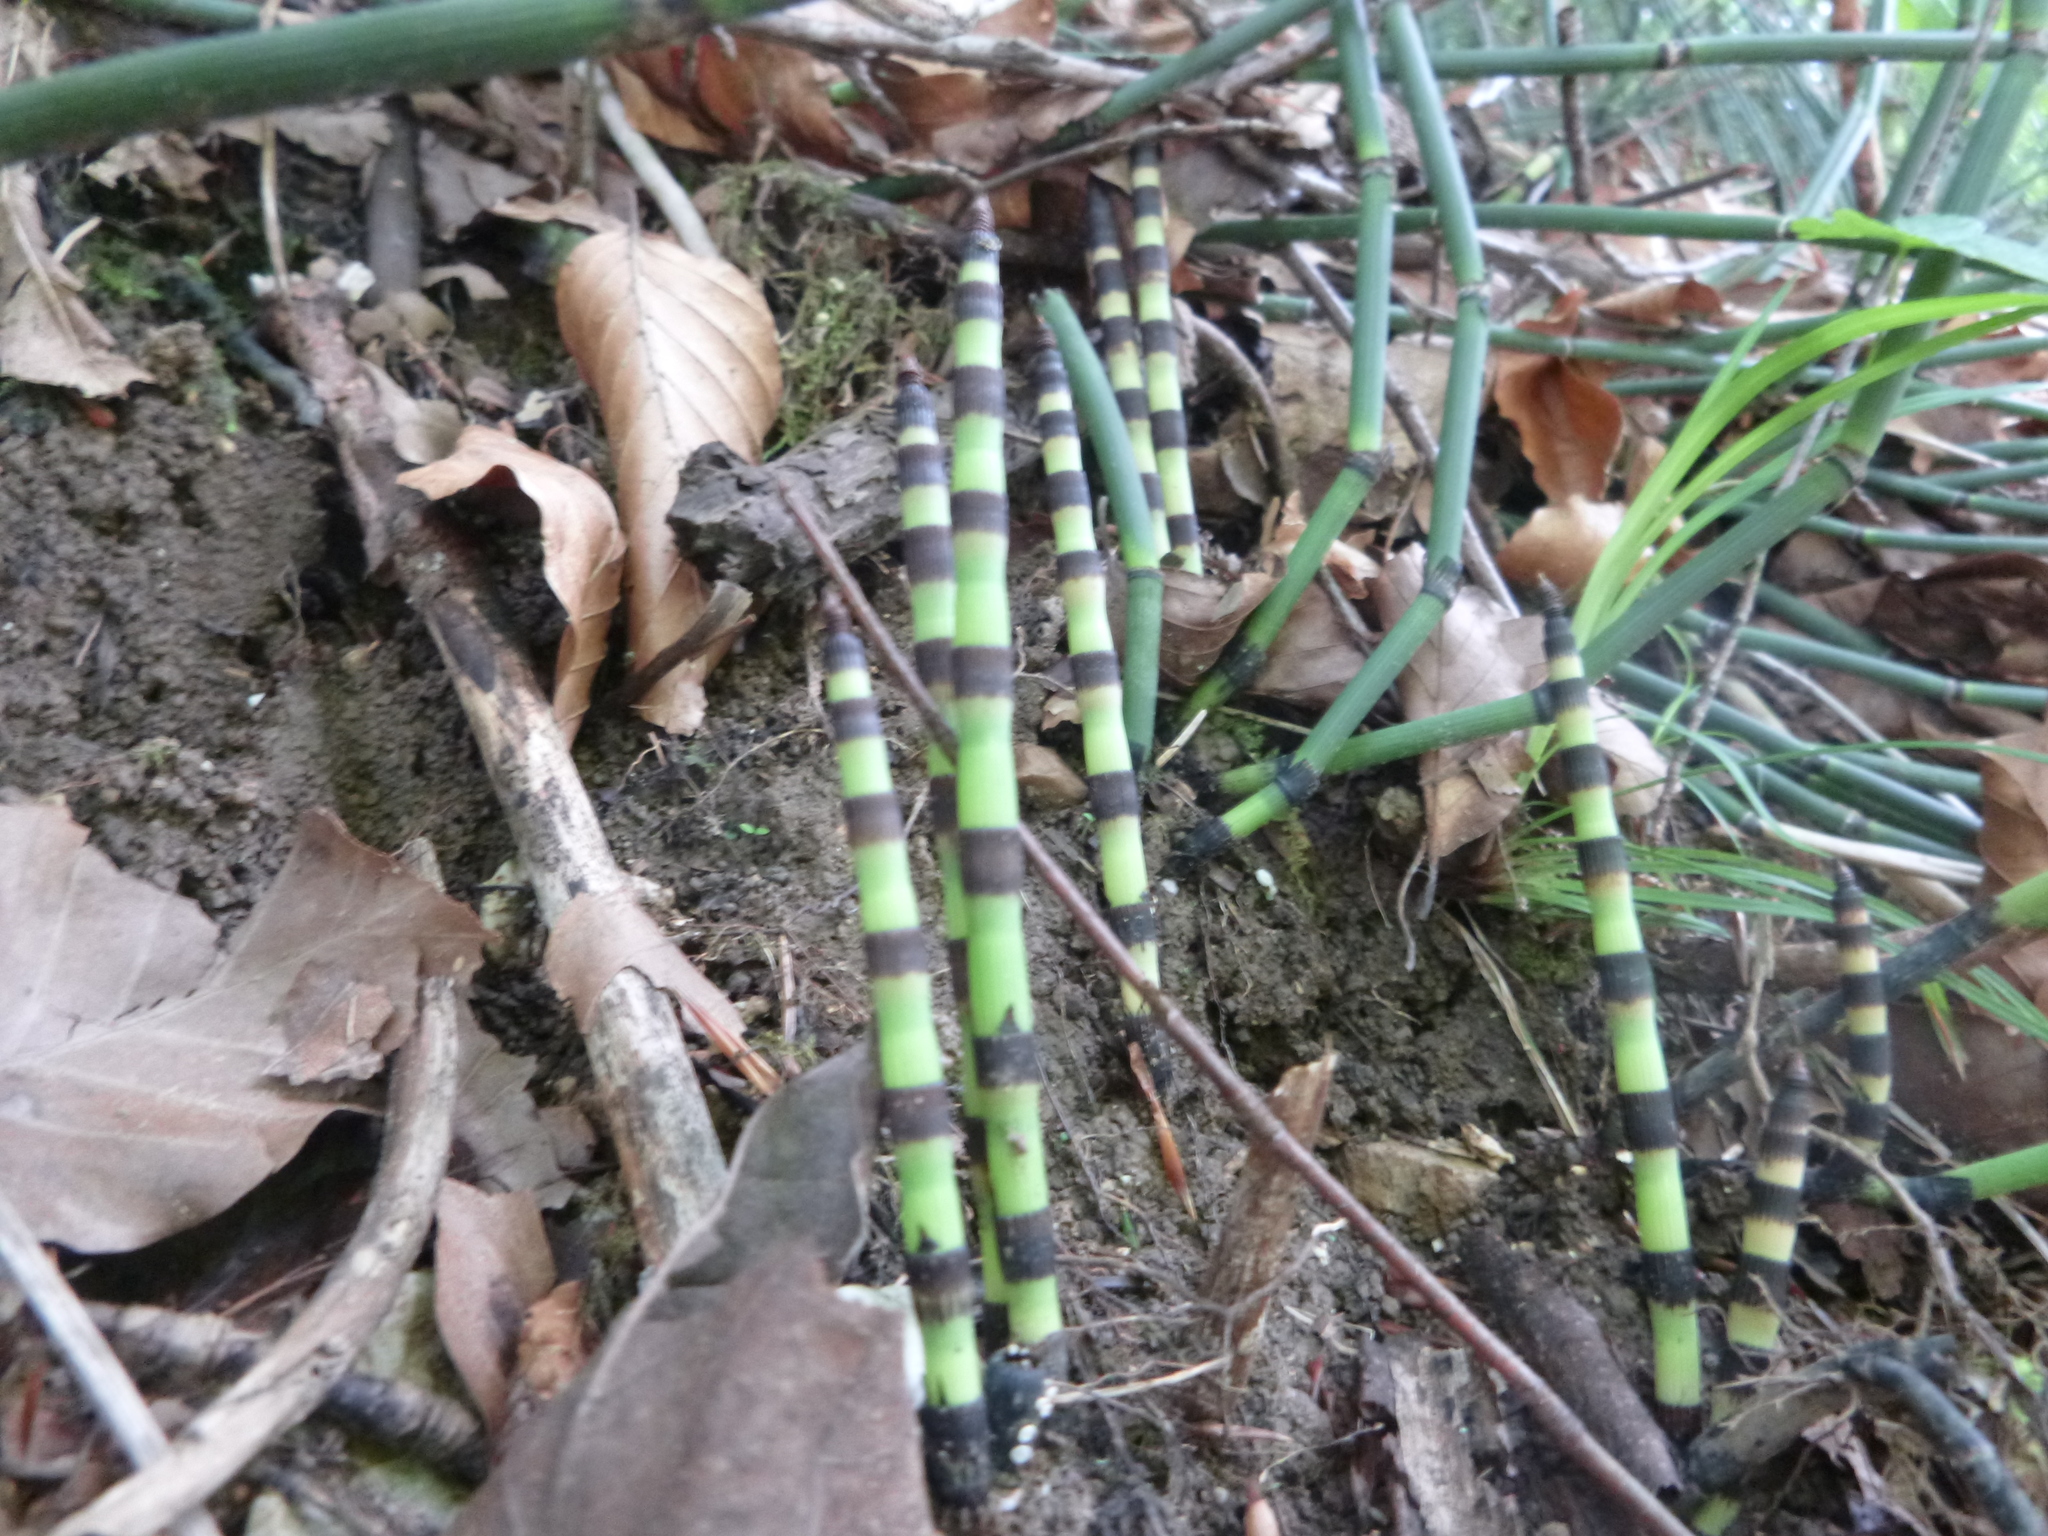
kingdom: Plantae
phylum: Tracheophyta
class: Polypodiopsida
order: Equisetales
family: Equisetaceae
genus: Equisetum
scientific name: Equisetum hyemale
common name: Rough horsetail
